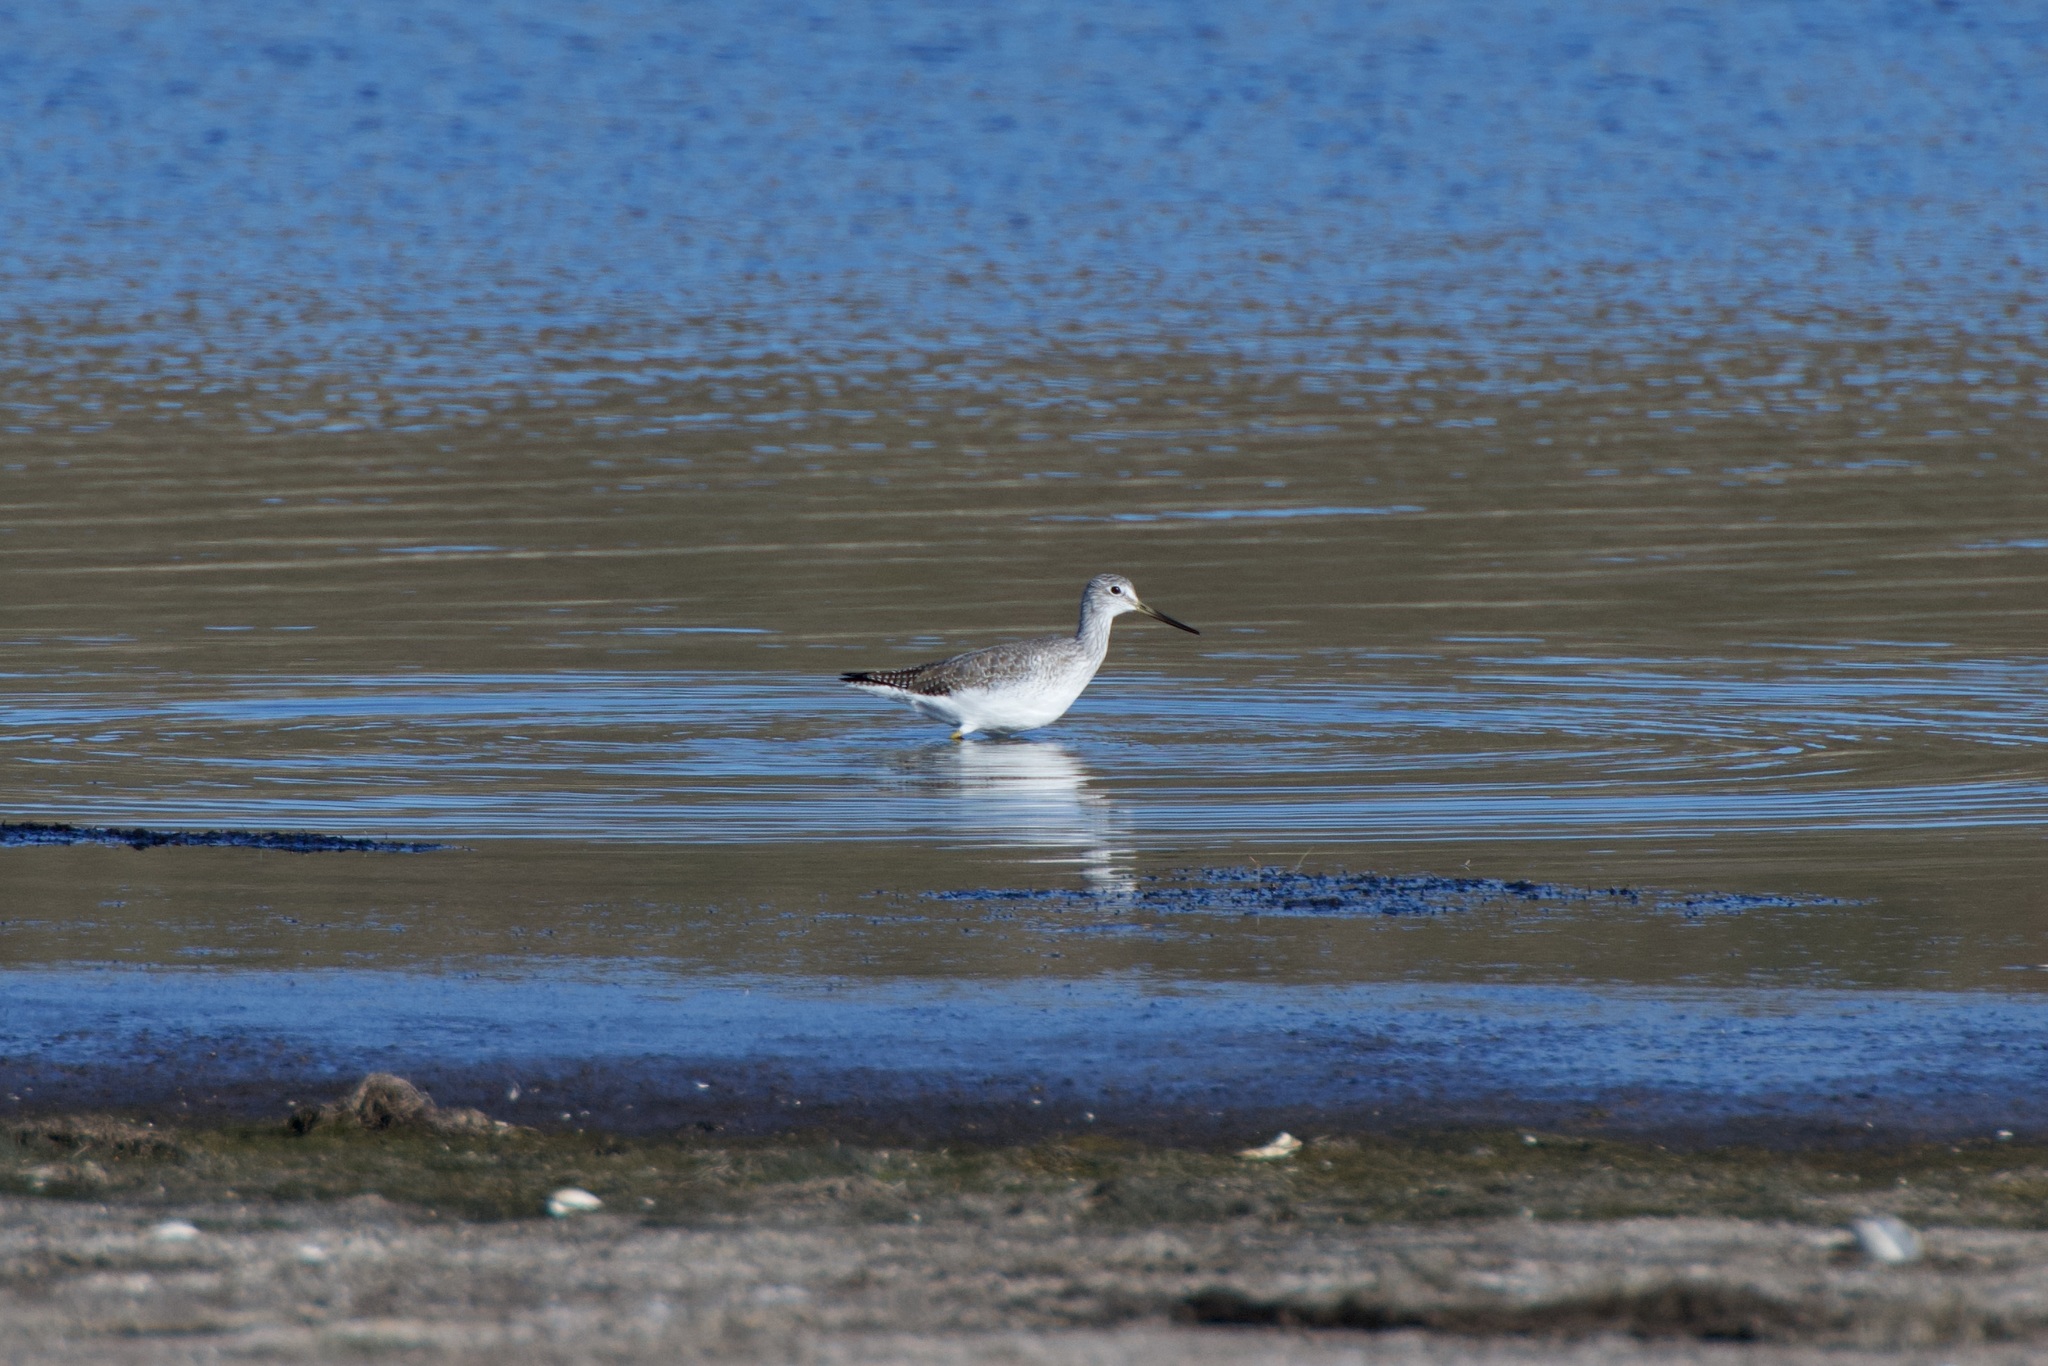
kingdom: Animalia
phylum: Chordata
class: Aves
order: Charadriiformes
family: Scolopacidae
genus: Tringa
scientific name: Tringa melanoleuca
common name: Greater yellowlegs
